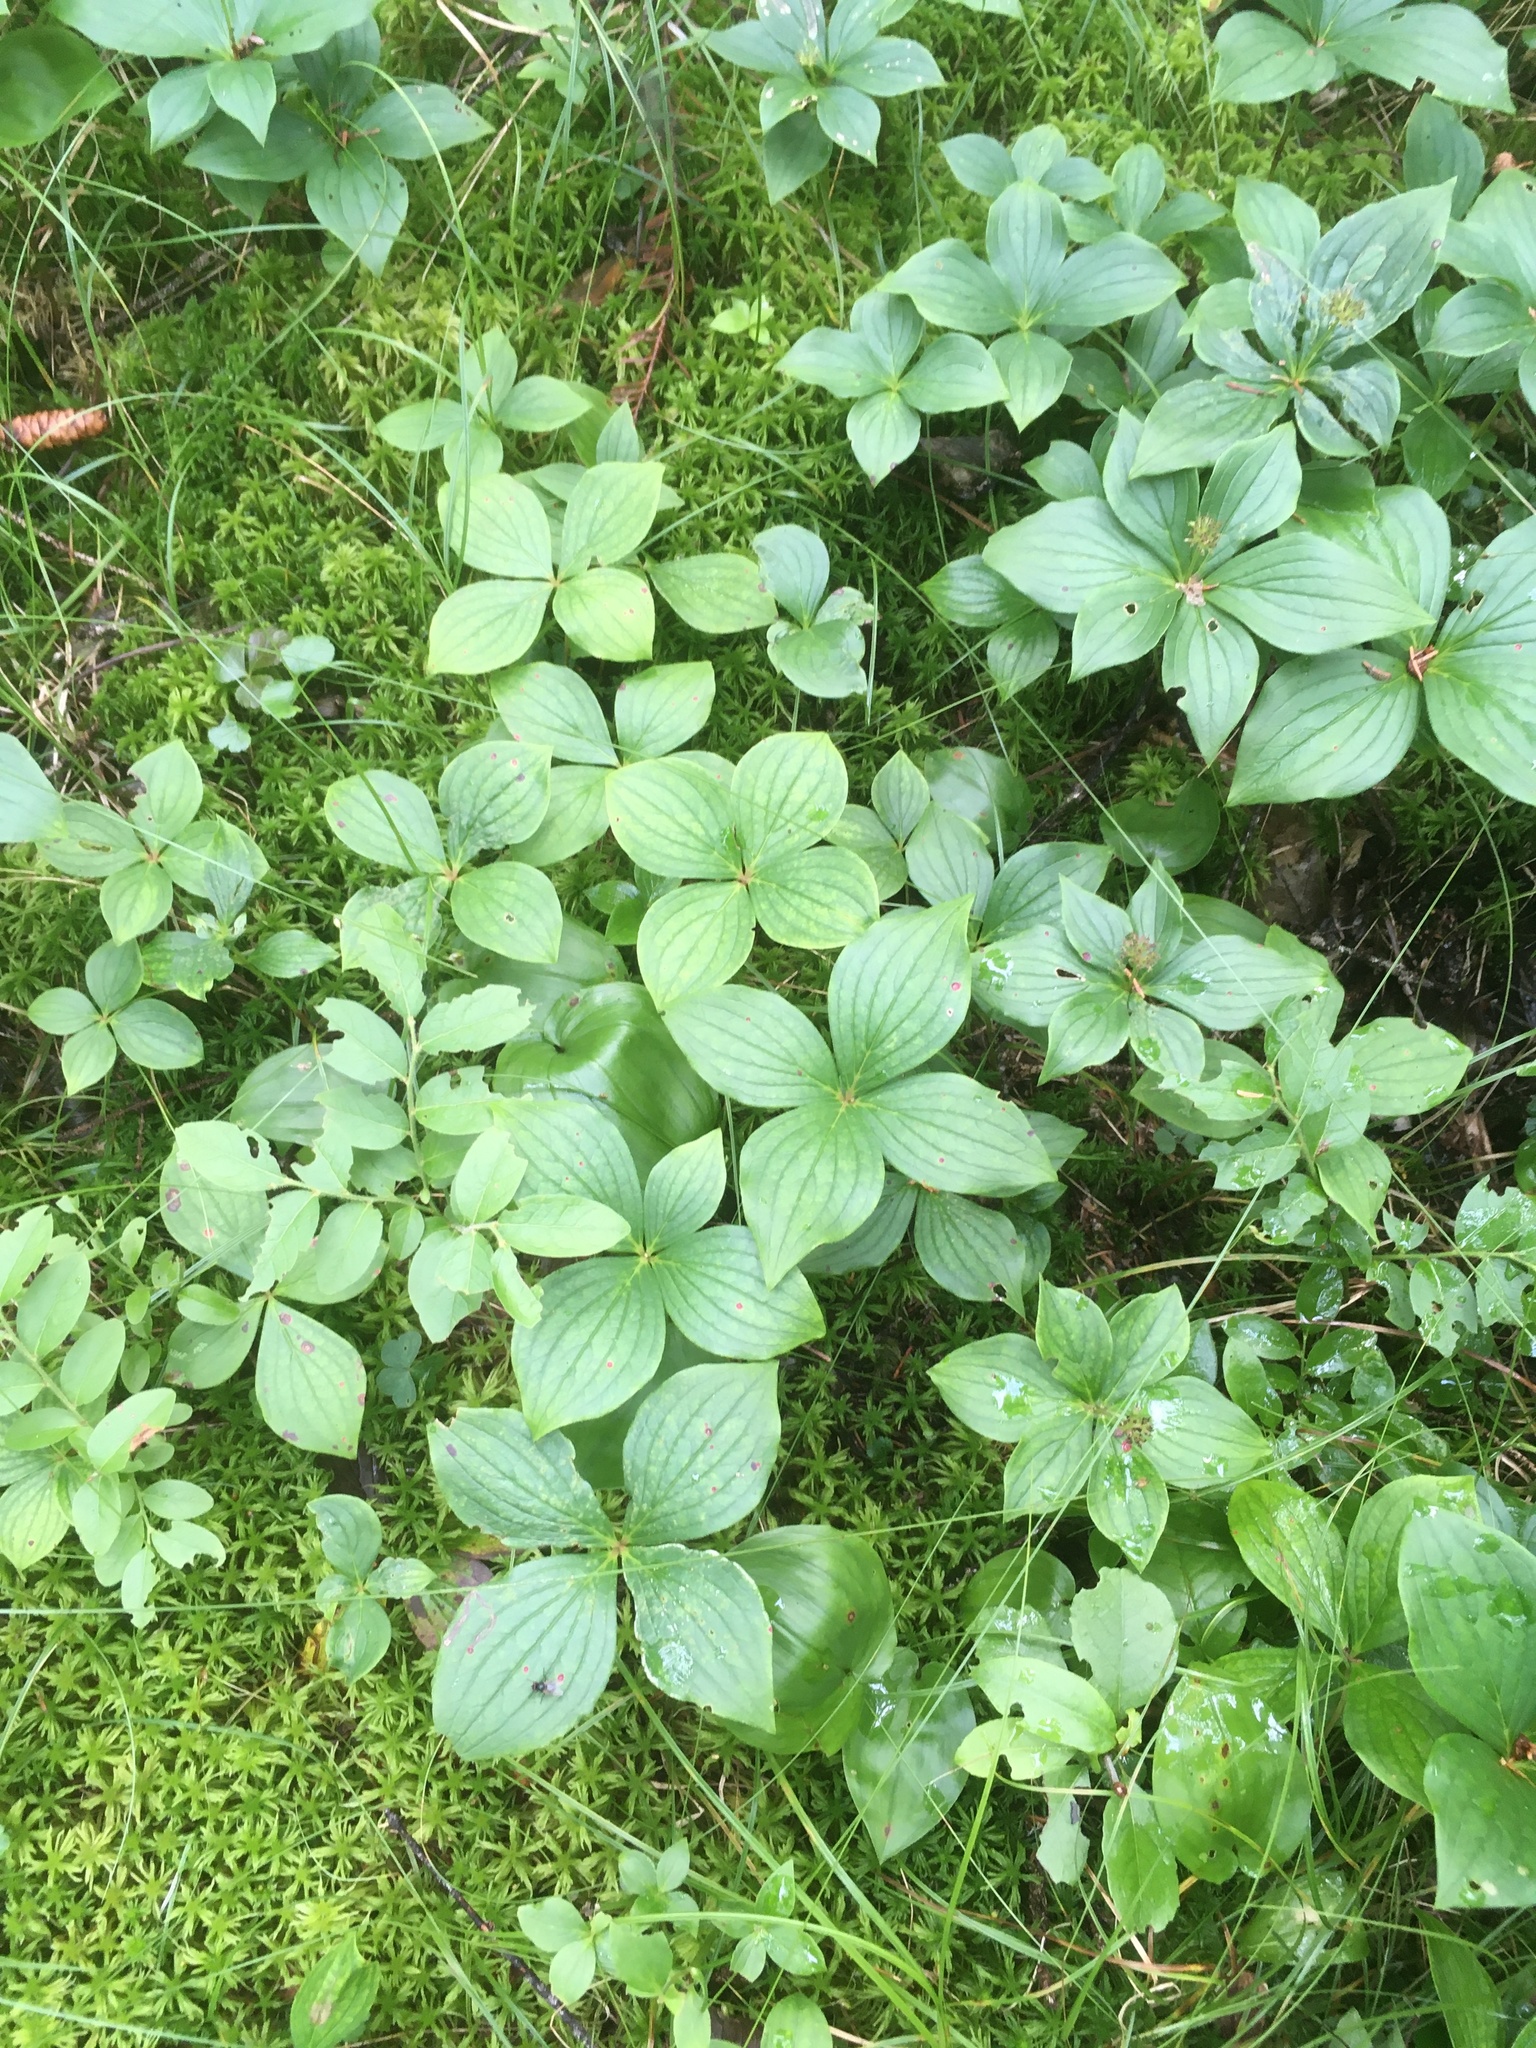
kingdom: Plantae
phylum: Tracheophyta
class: Magnoliopsida
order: Cornales
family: Cornaceae
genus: Cornus
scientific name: Cornus canadensis
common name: Creeping dogwood
